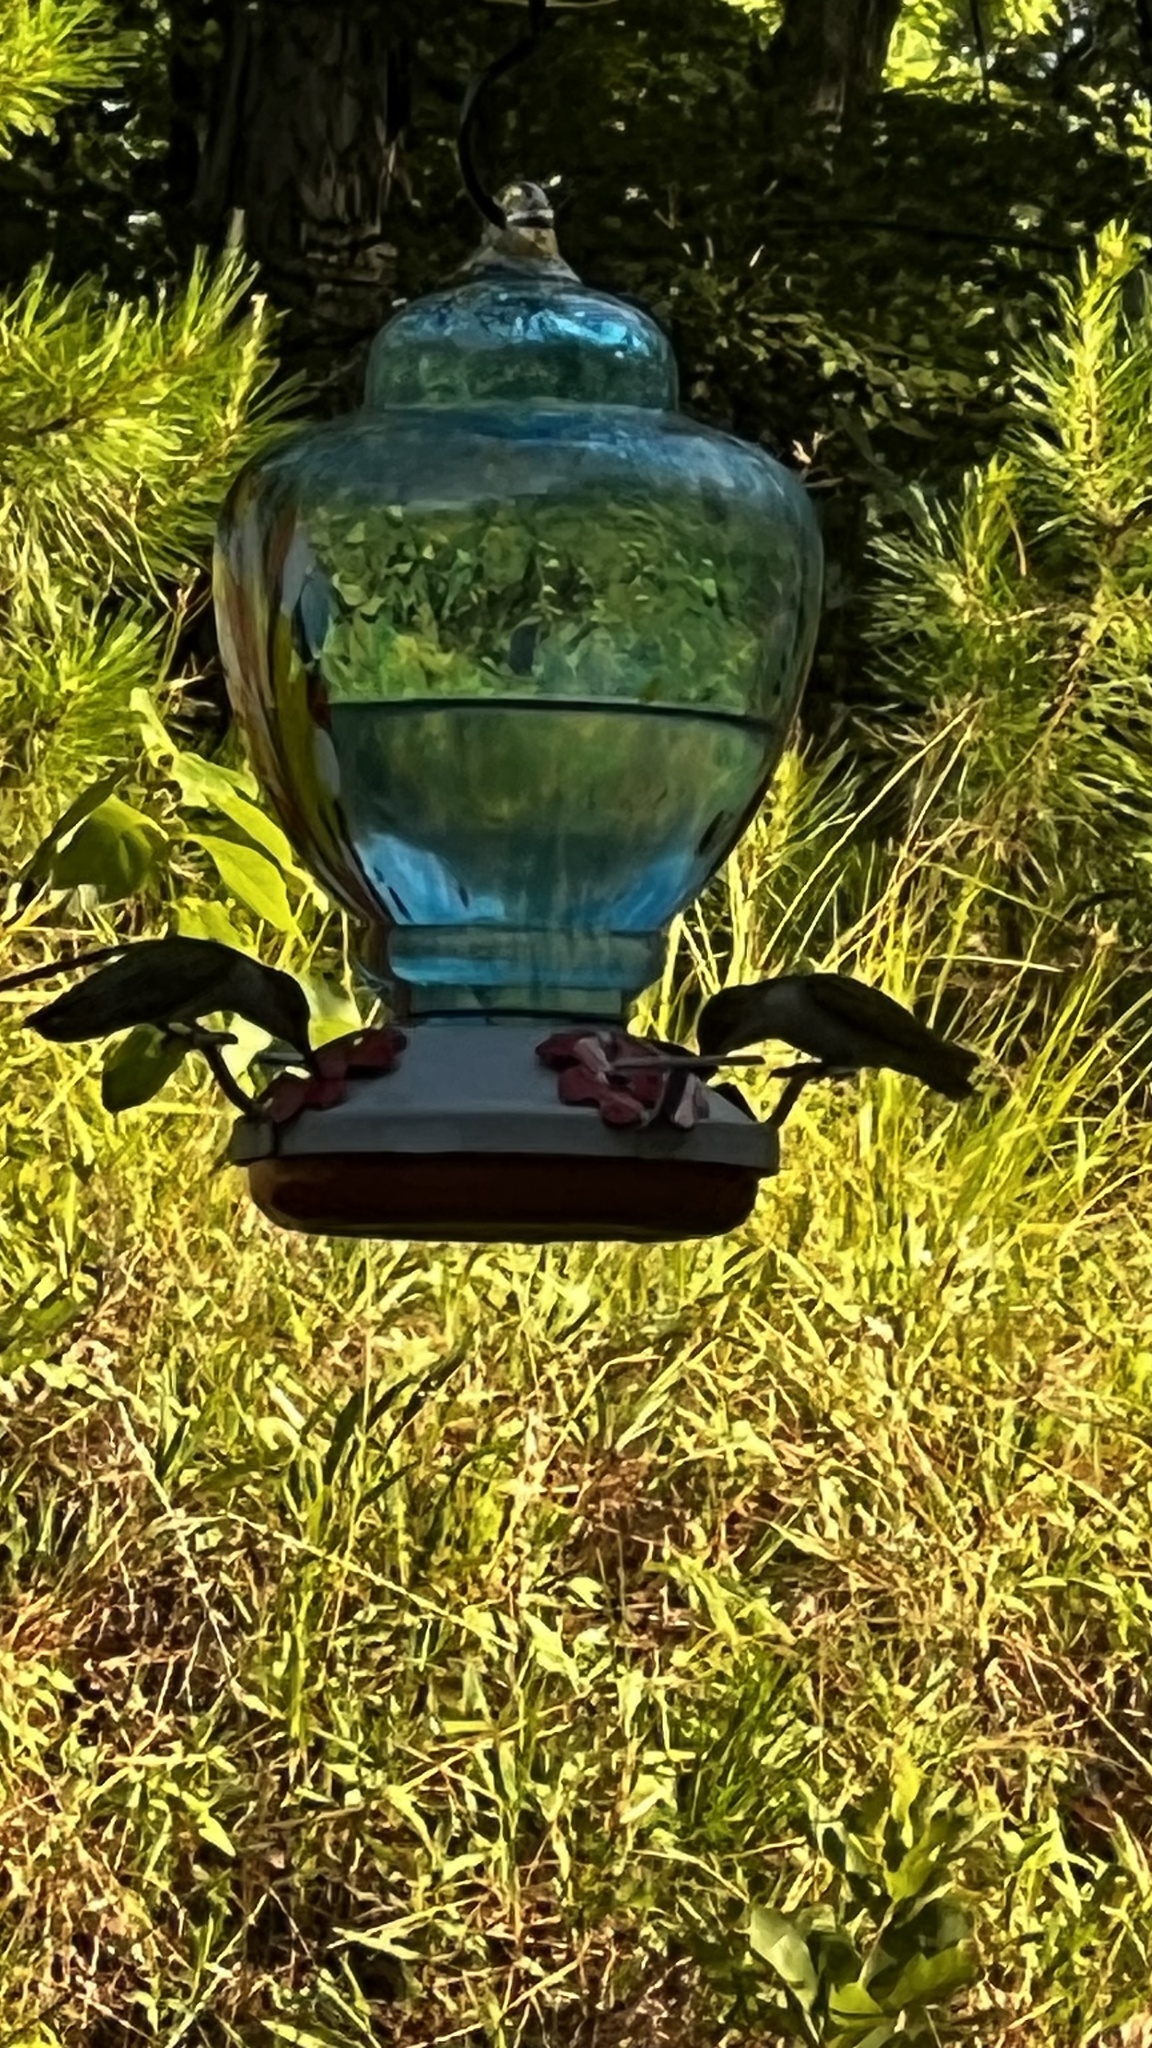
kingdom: Animalia
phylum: Chordata
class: Aves
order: Apodiformes
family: Trochilidae
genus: Archilochus
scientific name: Archilochus colubris
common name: Ruby-throated hummingbird
